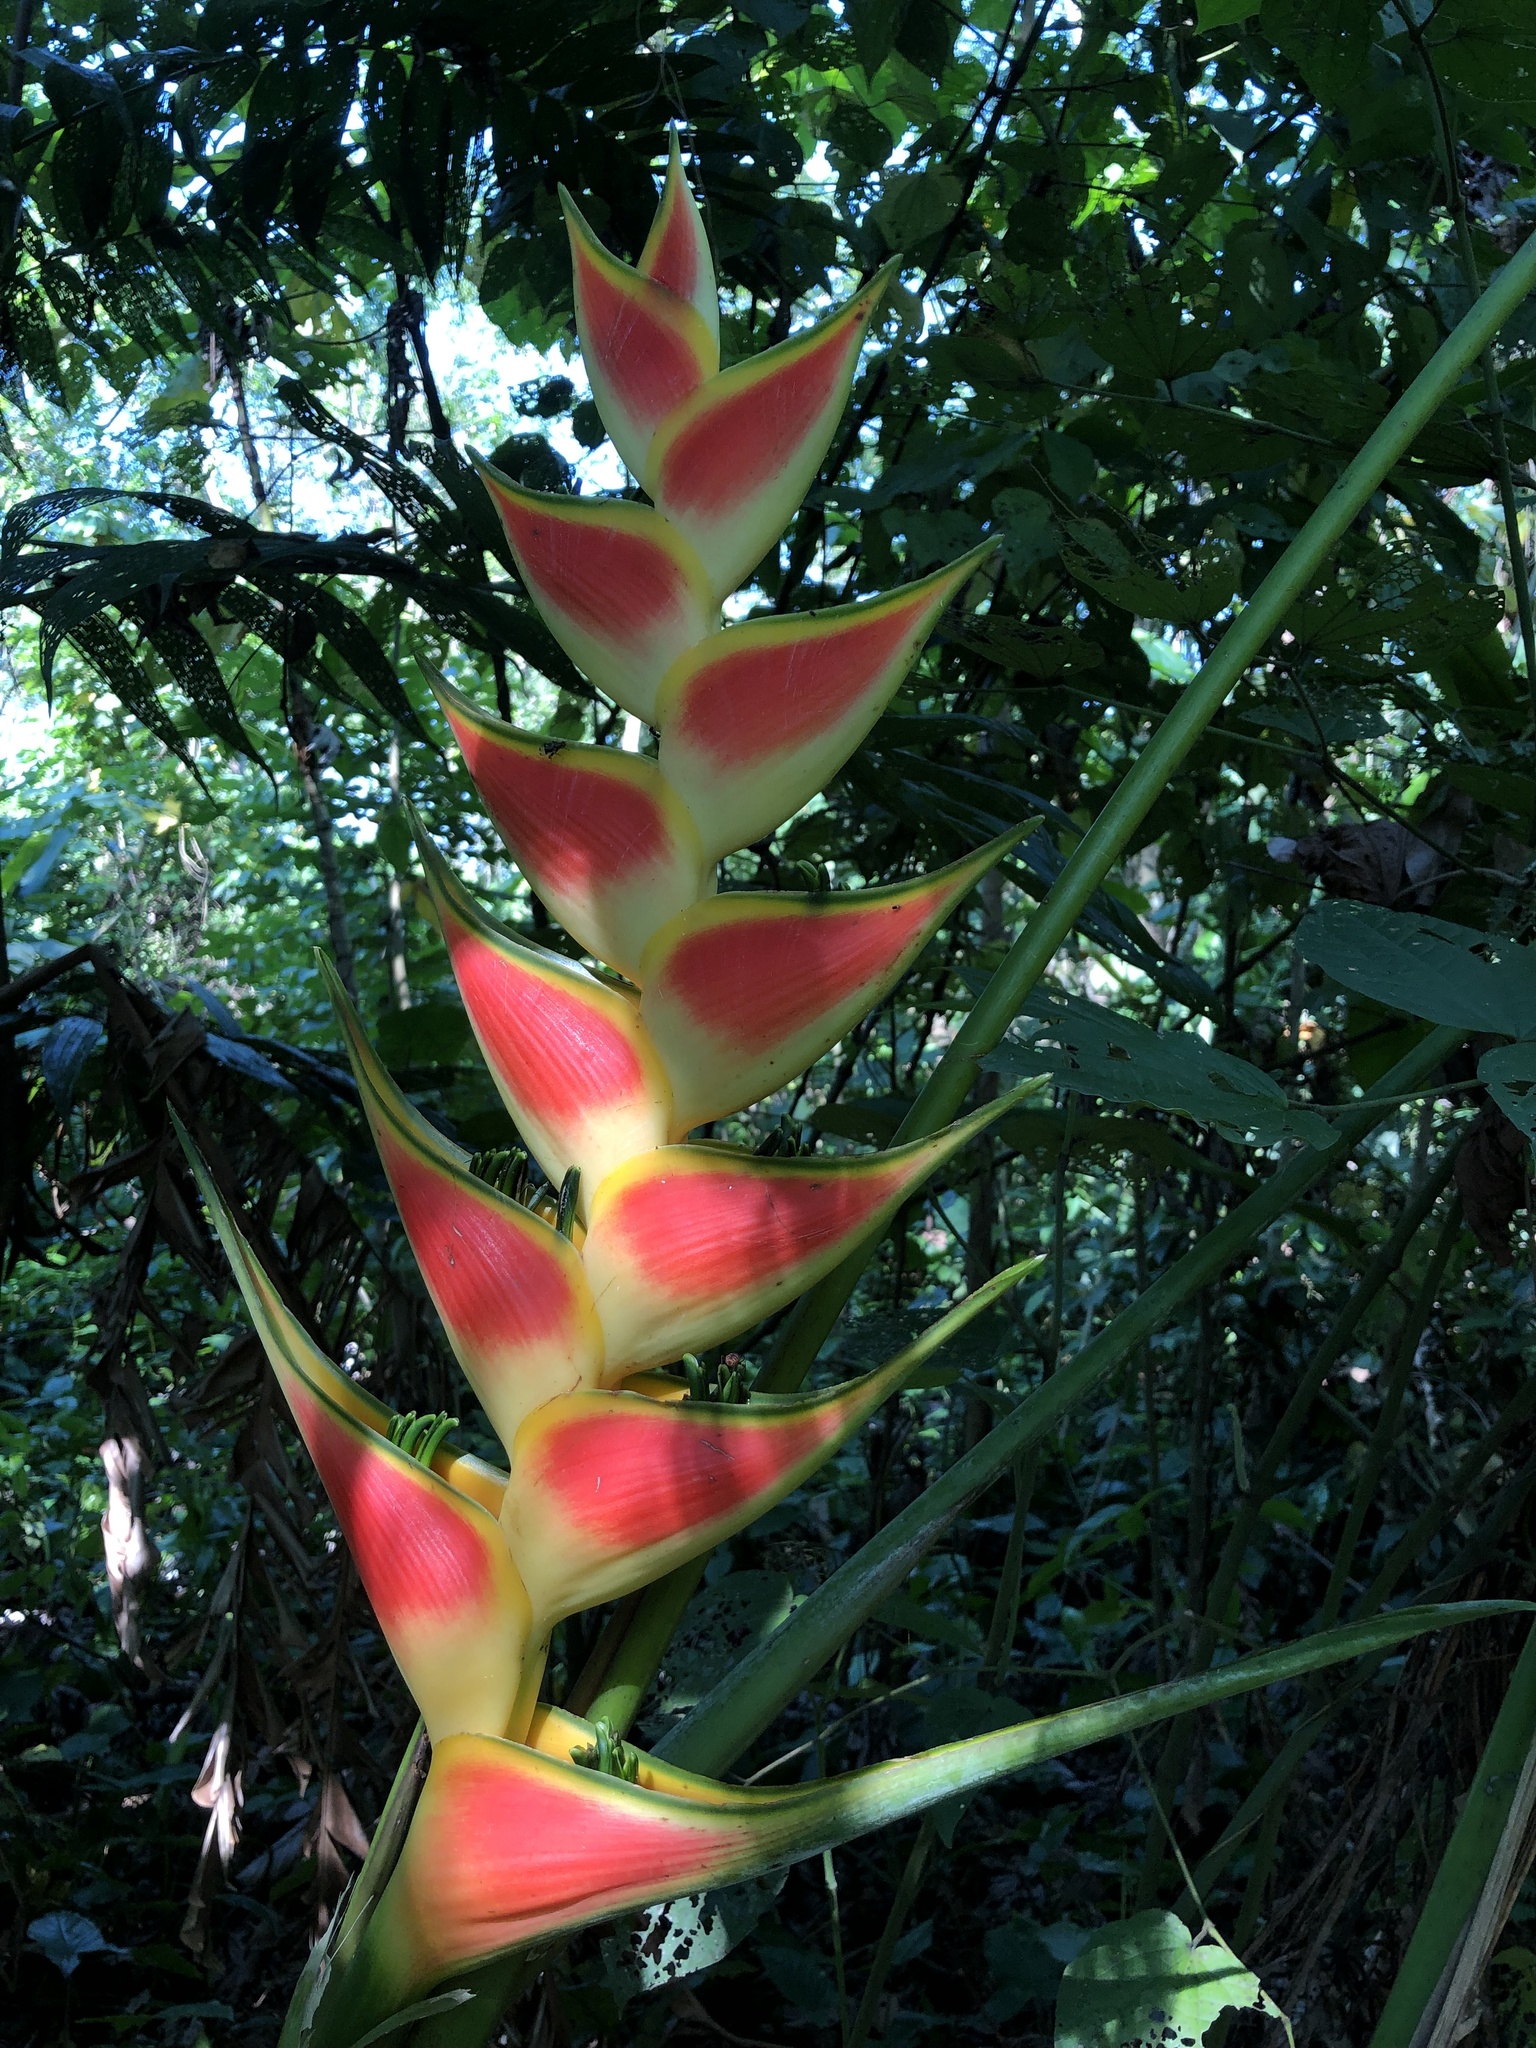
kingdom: Plantae
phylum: Tracheophyta
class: Liliopsida
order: Zingiberales
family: Heliconiaceae
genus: Heliconia
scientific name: Heliconia wagneriana
